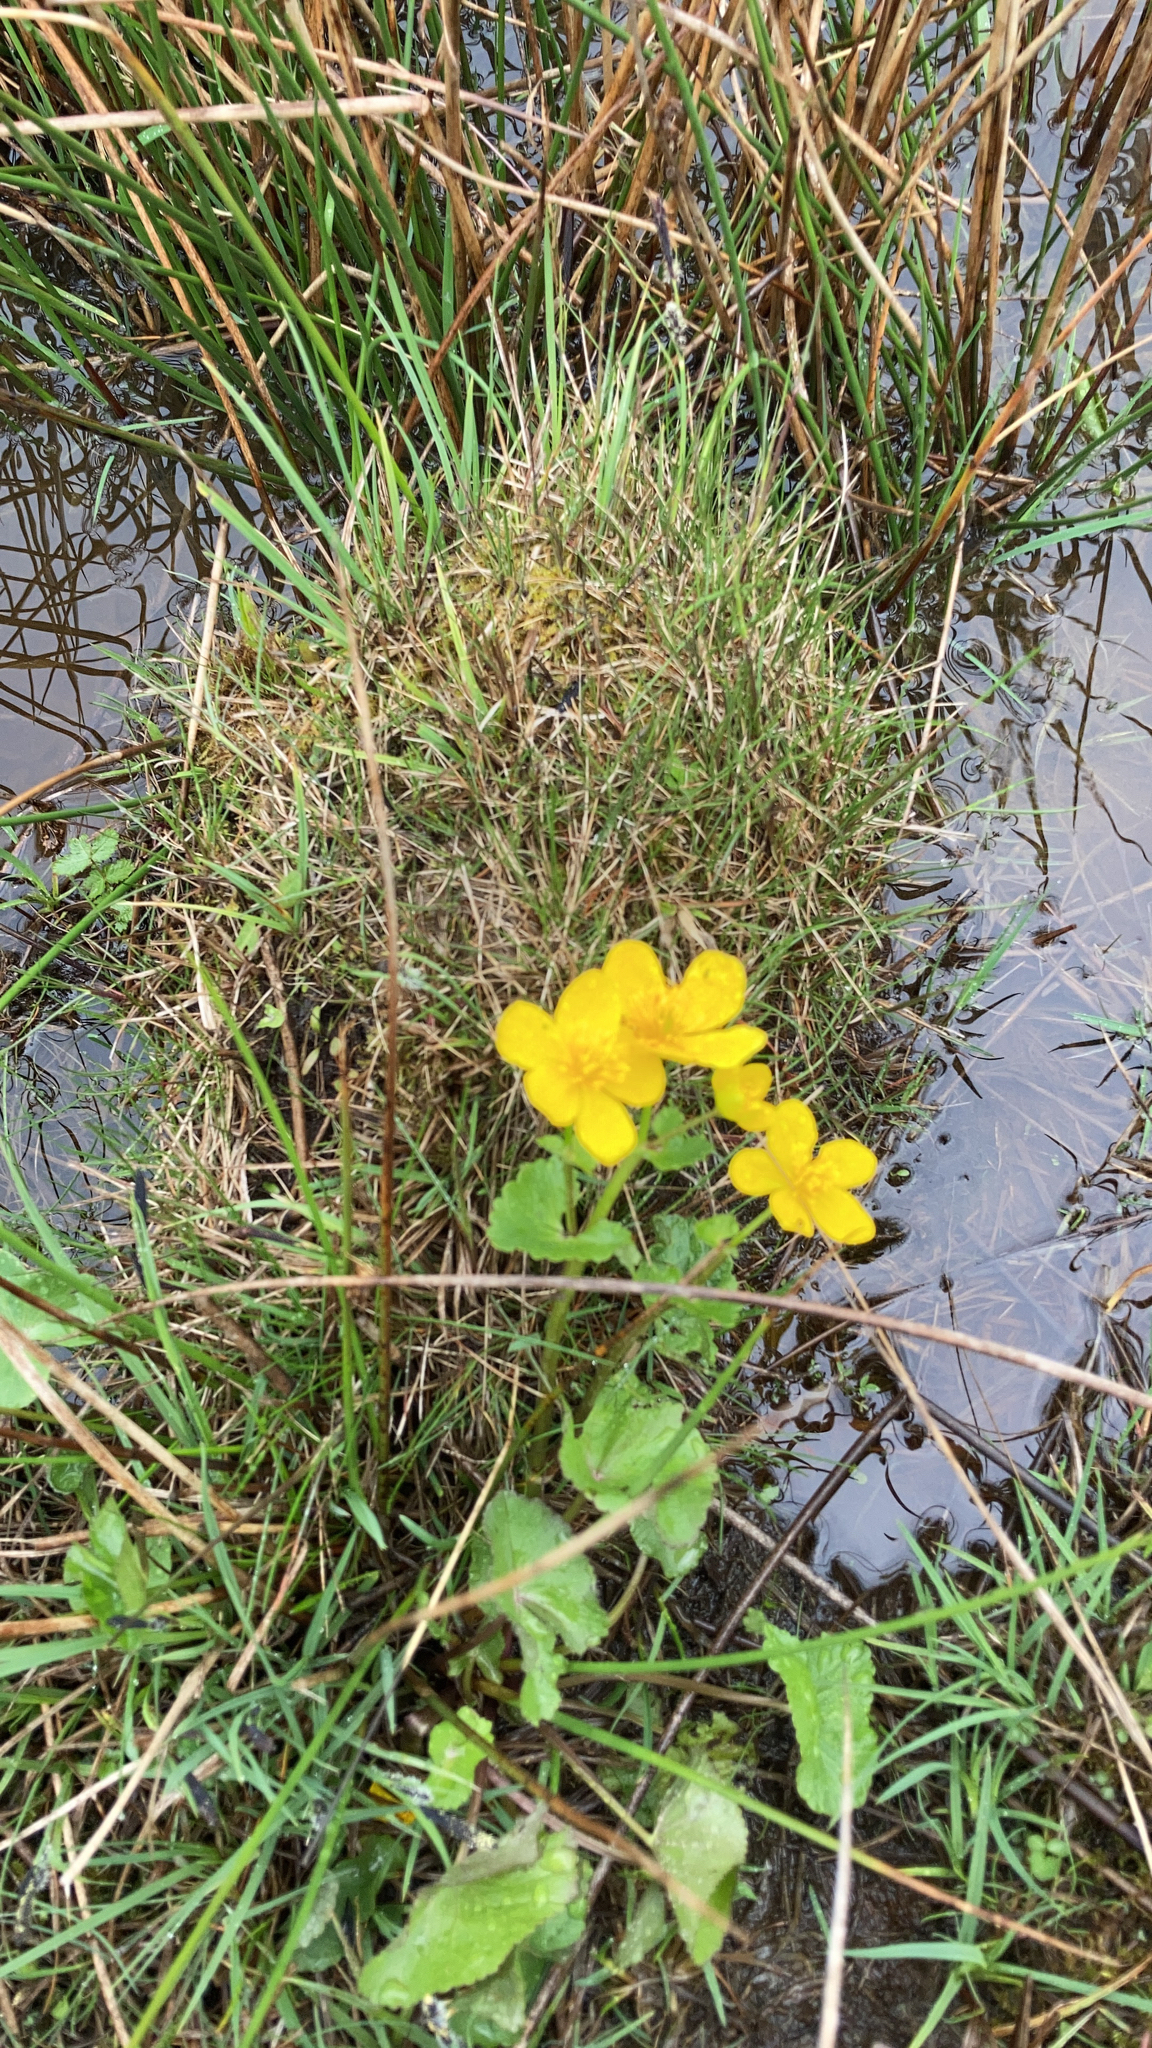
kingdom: Plantae
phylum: Tracheophyta
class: Magnoliopsida
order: Ranunculales
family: Ranunculaceae
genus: Caltha
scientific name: Caltha palustris
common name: Marsh marigold
